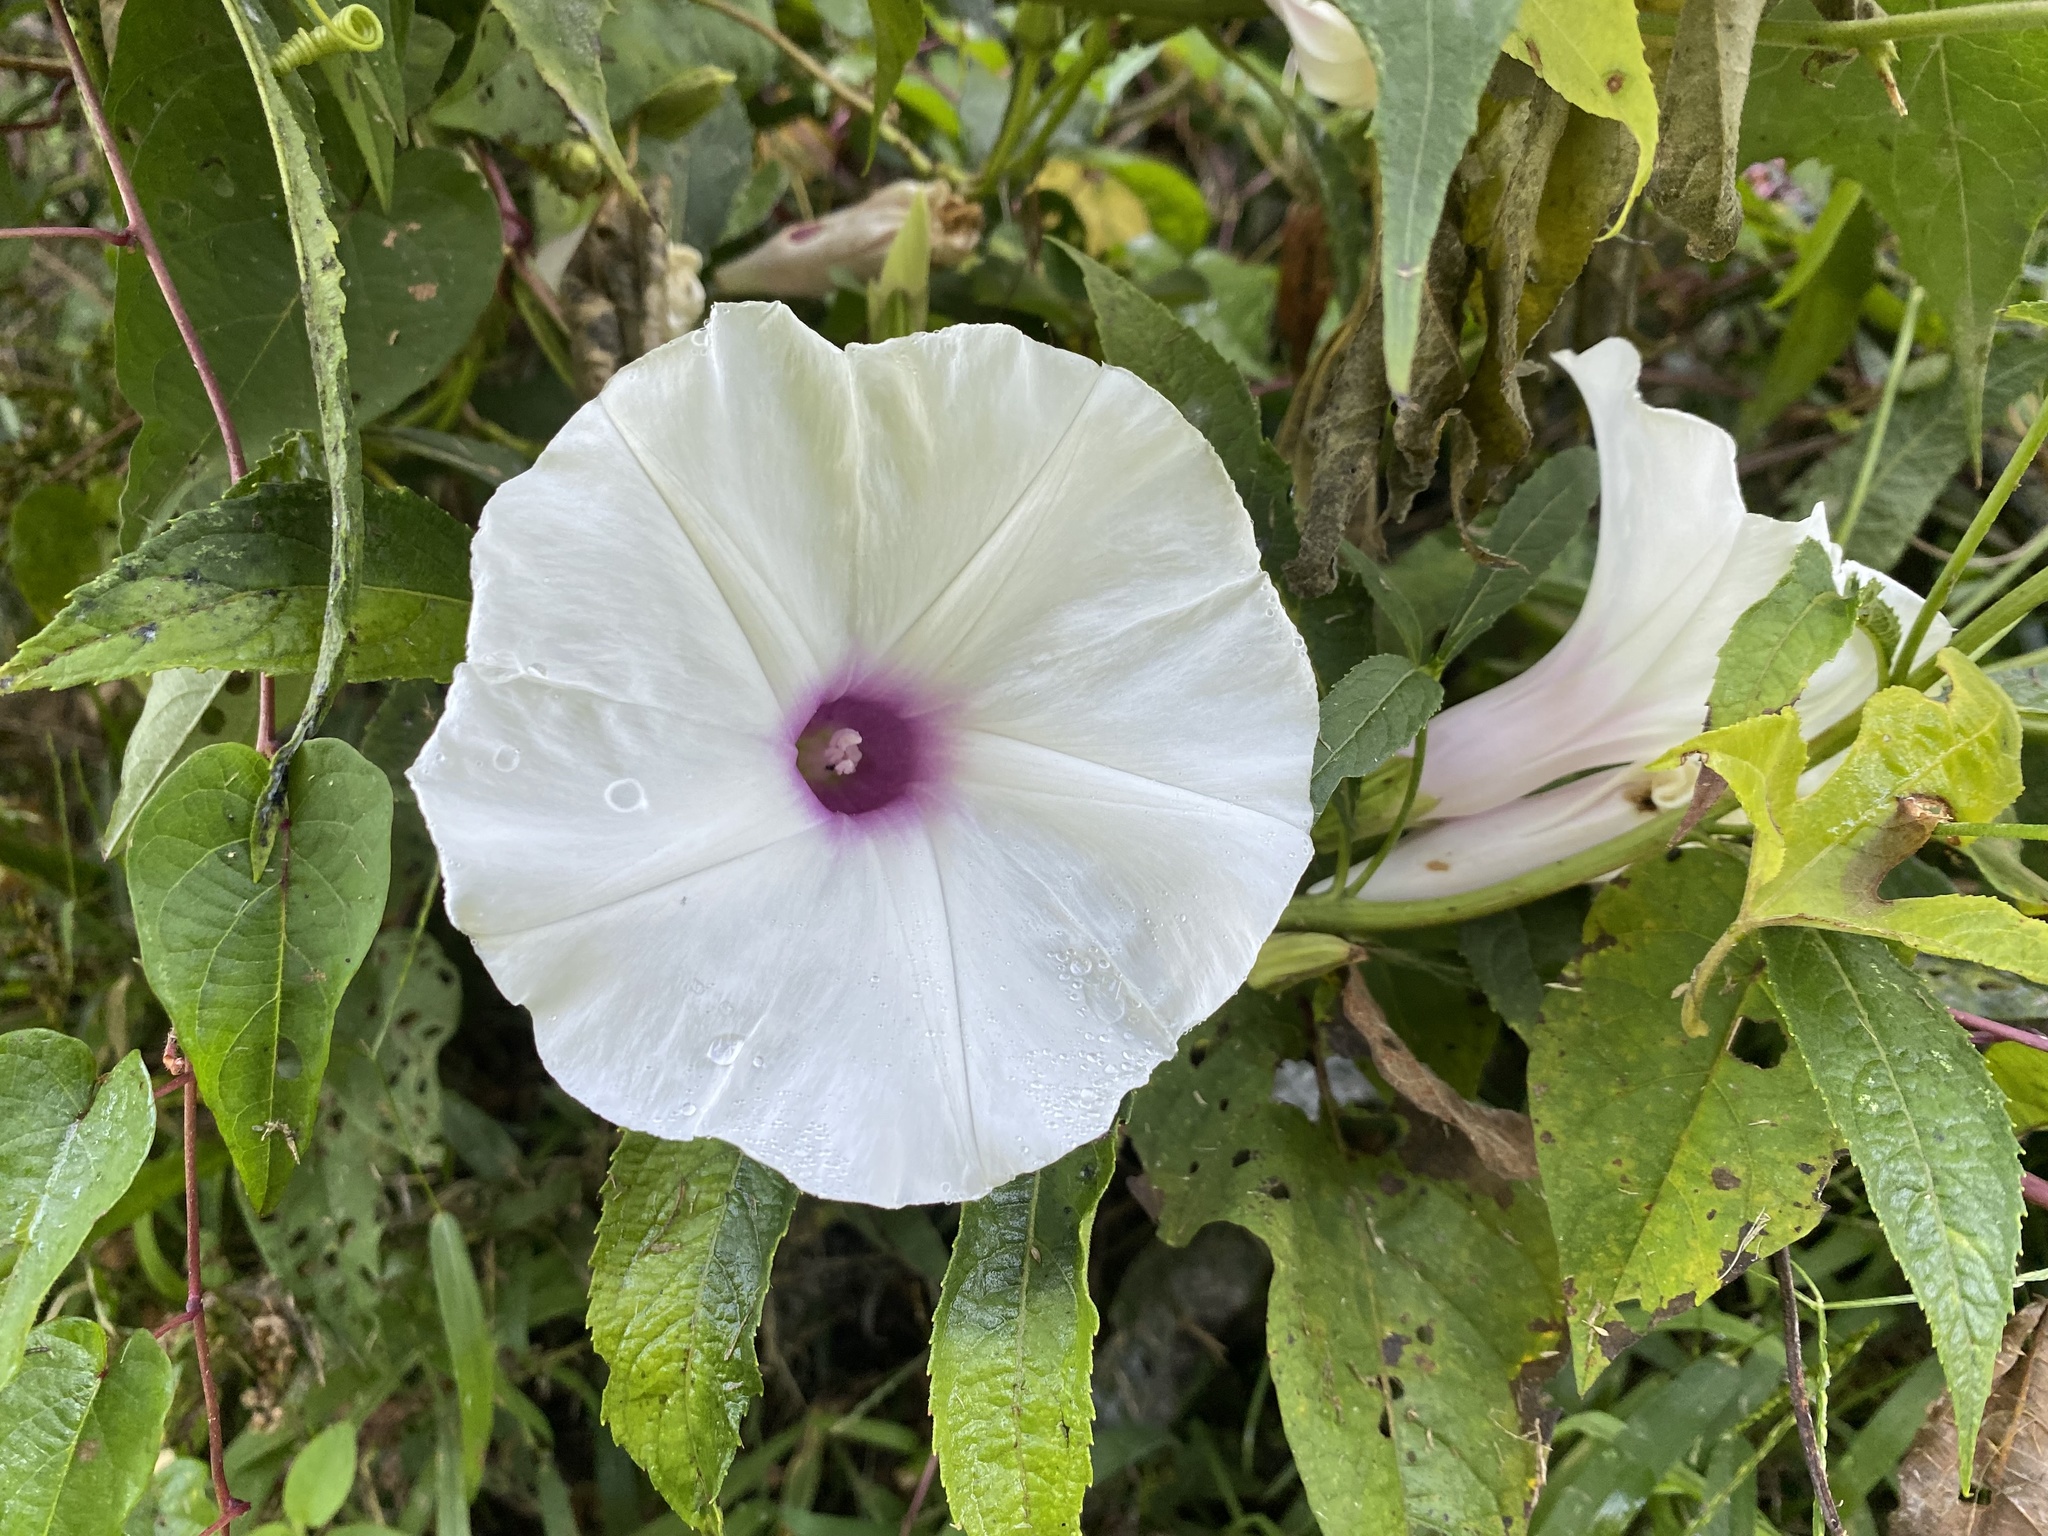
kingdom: Plantae
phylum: Tracheophyta
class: Magnoliopsida
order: Solanales
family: Convolvulaceae
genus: Ipomoea
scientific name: Ipomoea pandurata
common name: Man-of-the-earth
